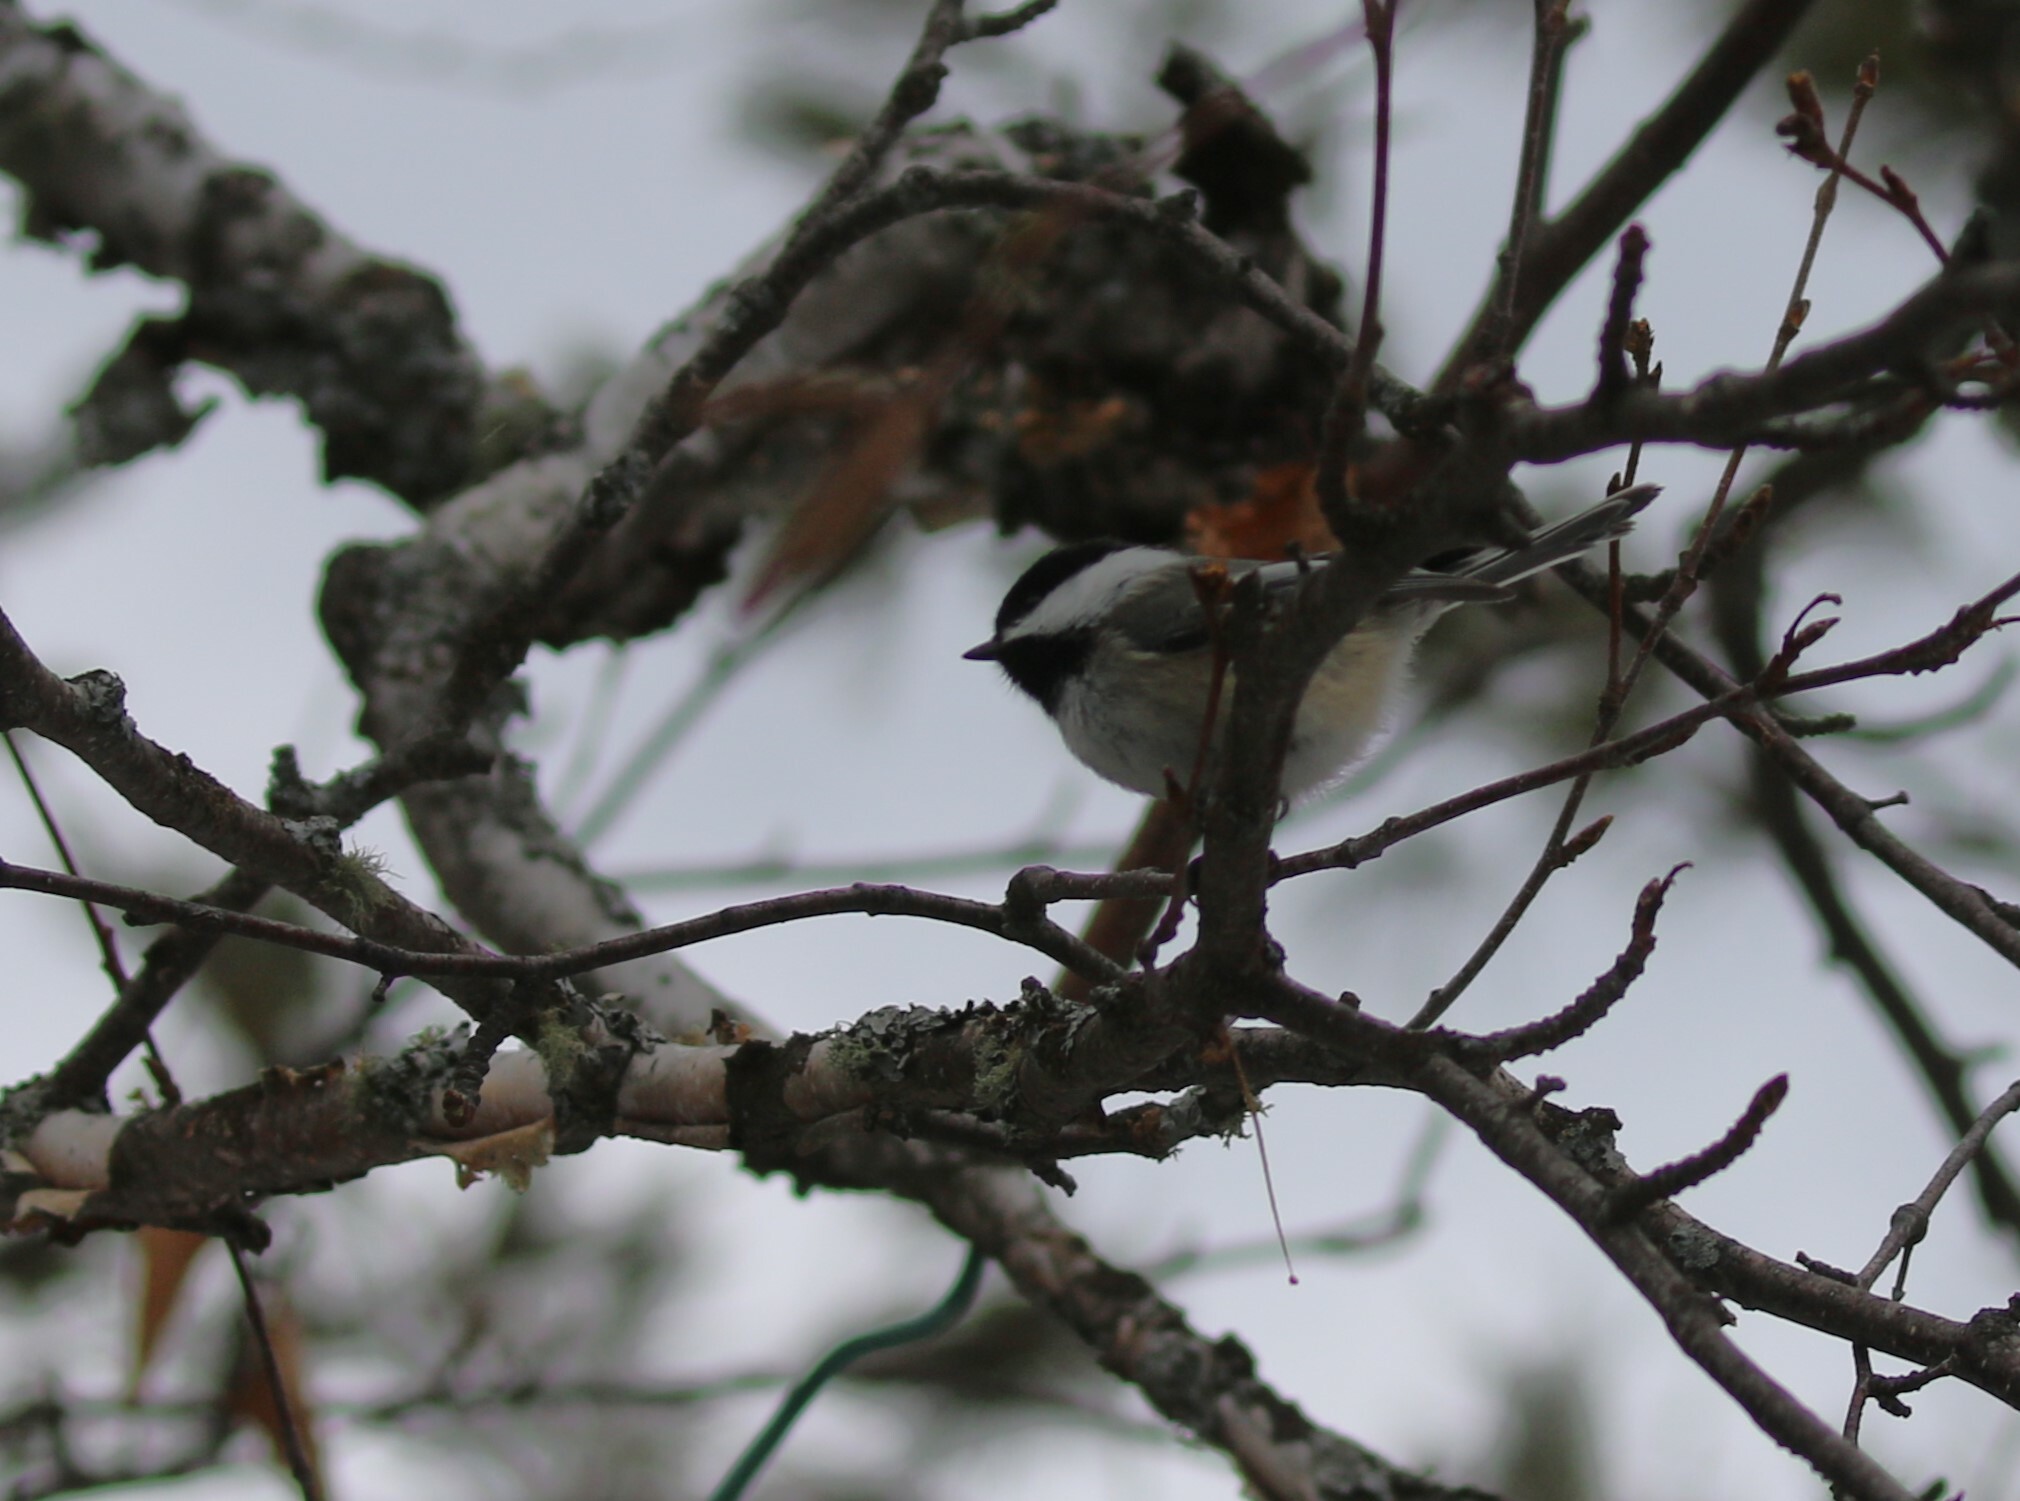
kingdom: Animalia
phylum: Chordata
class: Aves
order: Passeriformes
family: Paridae
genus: Poecile
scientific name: Poecile atricapillus
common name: Black-capped chickadee
